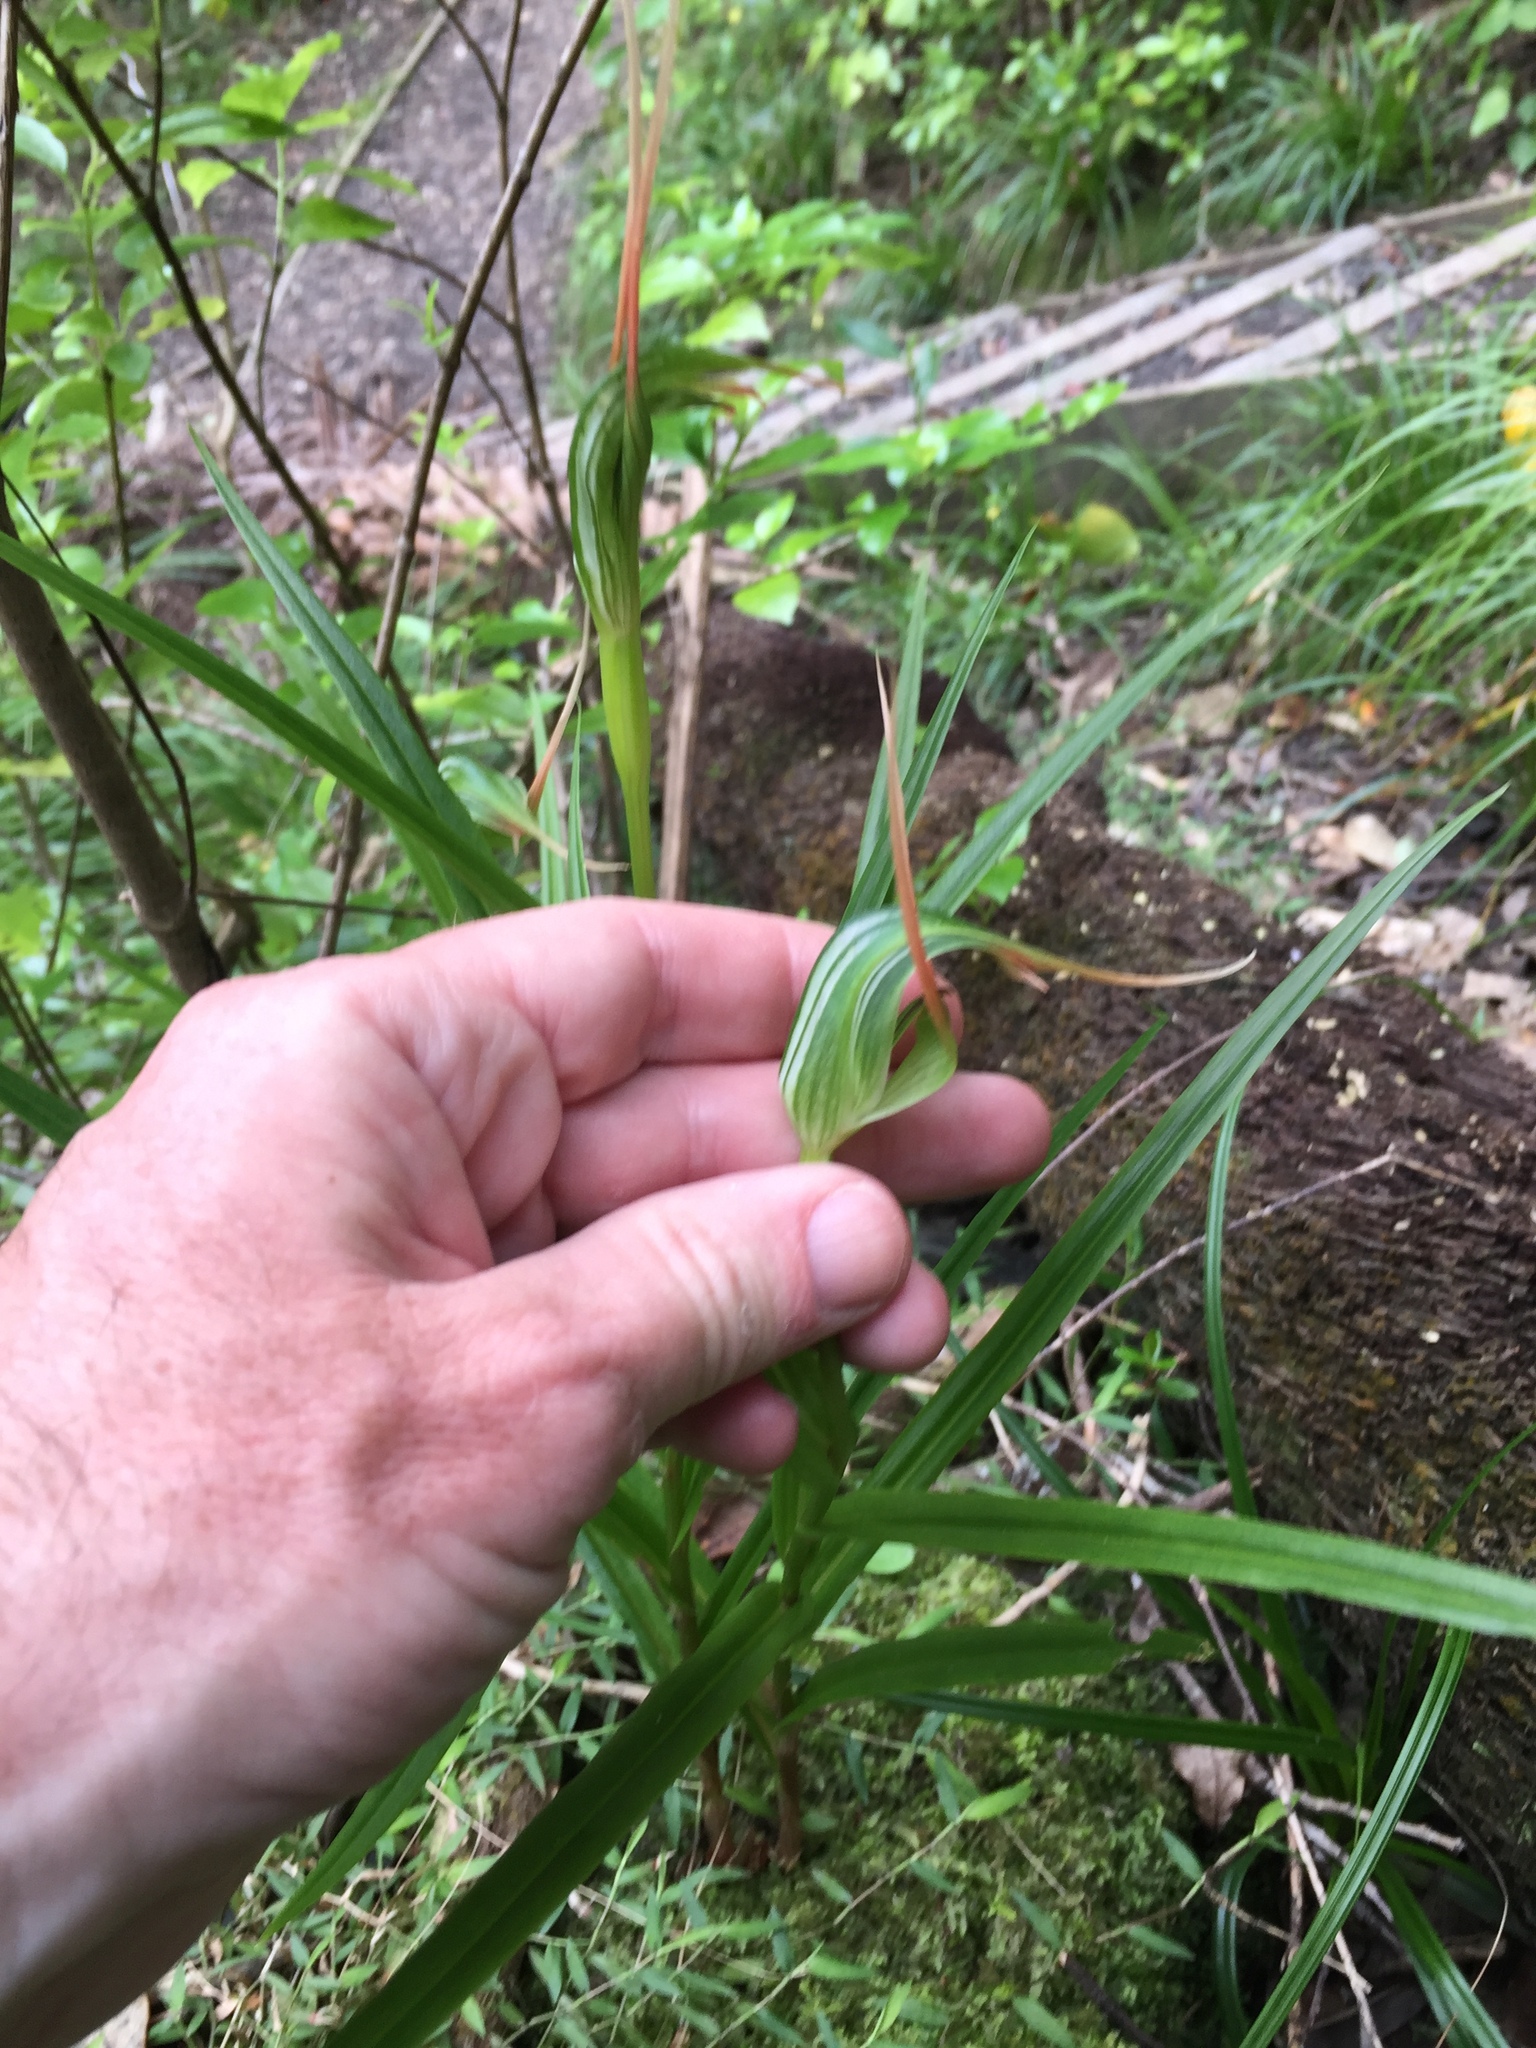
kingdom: Plantae
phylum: Tracheophyta
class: Liliopsida
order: Asparagales
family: Orchidaceae
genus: Pterostylis
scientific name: Pterostylis banksii
